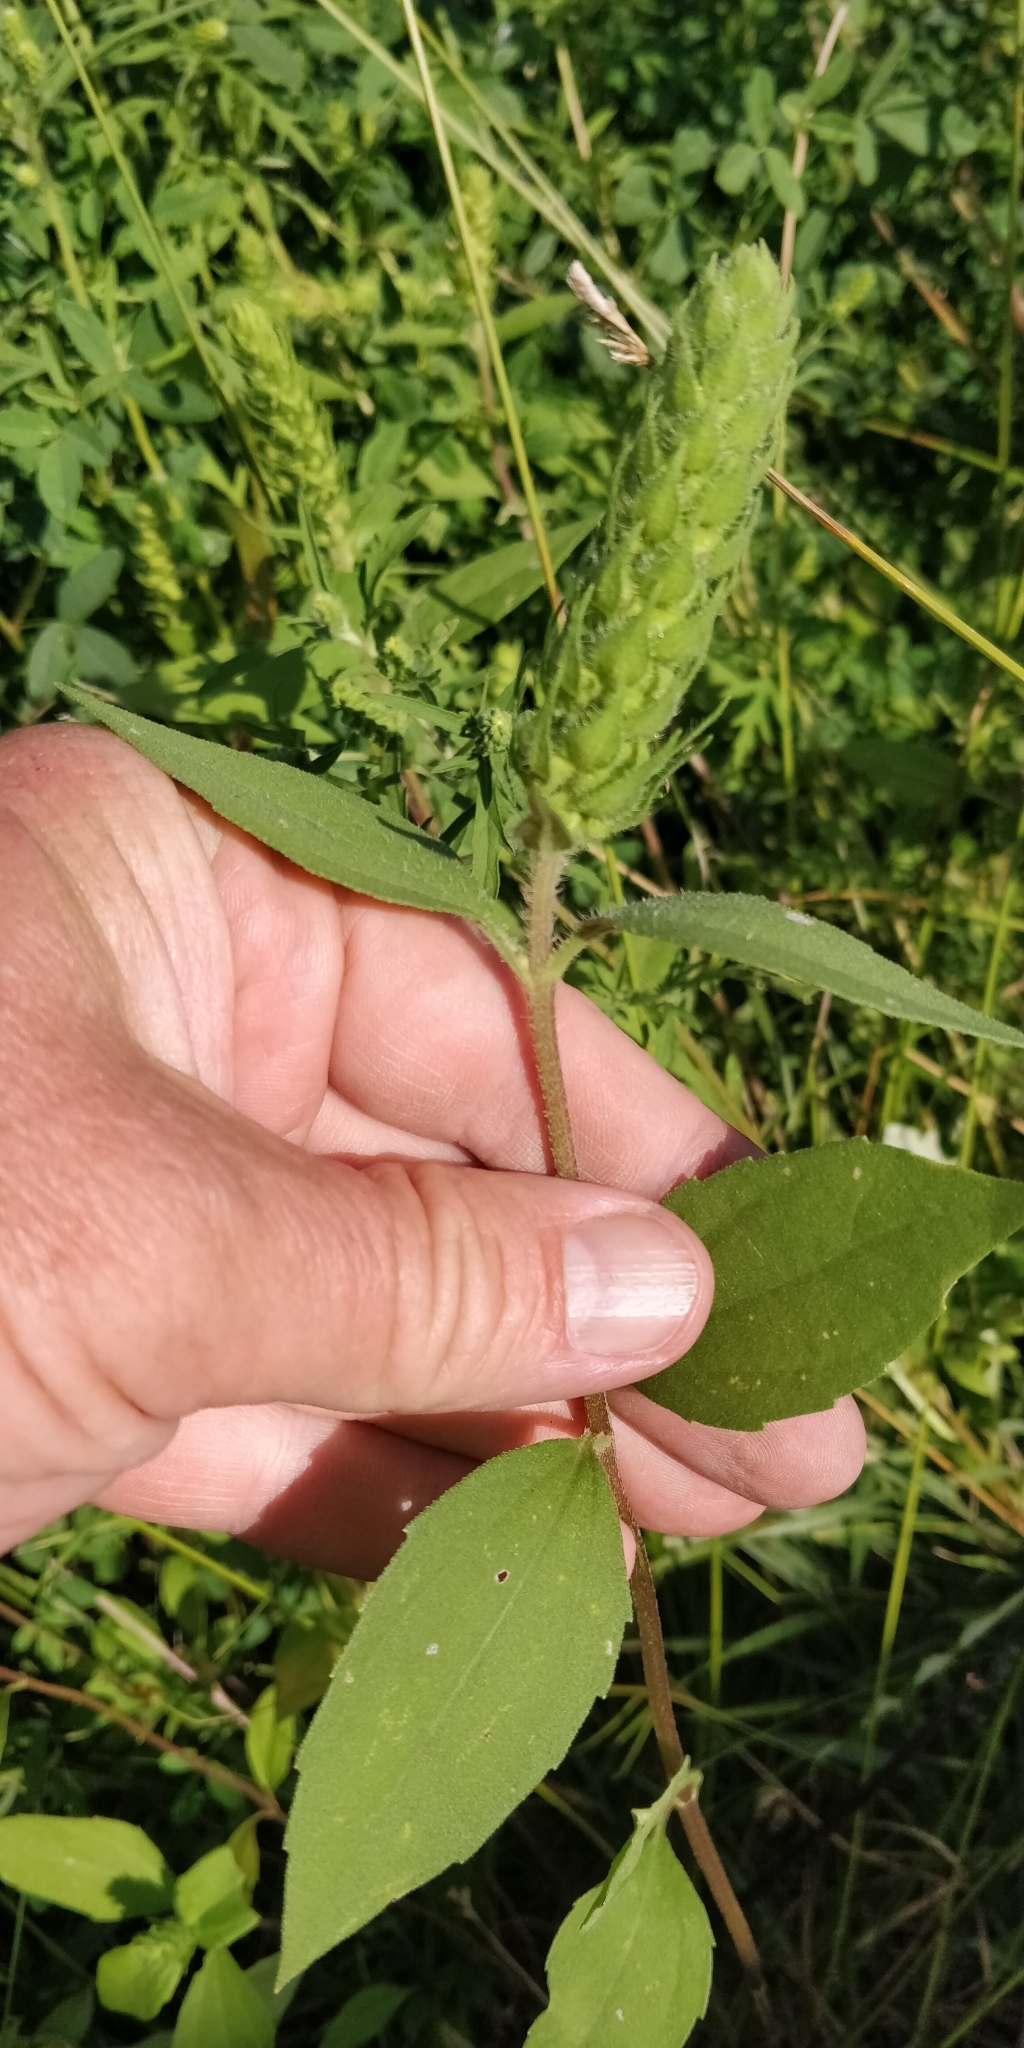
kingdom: Plantae
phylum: Tracheophyta
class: Magnoliopsida
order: Asterales
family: Asteraceae
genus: Iva
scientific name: Iva annua
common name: Marsh-elder
